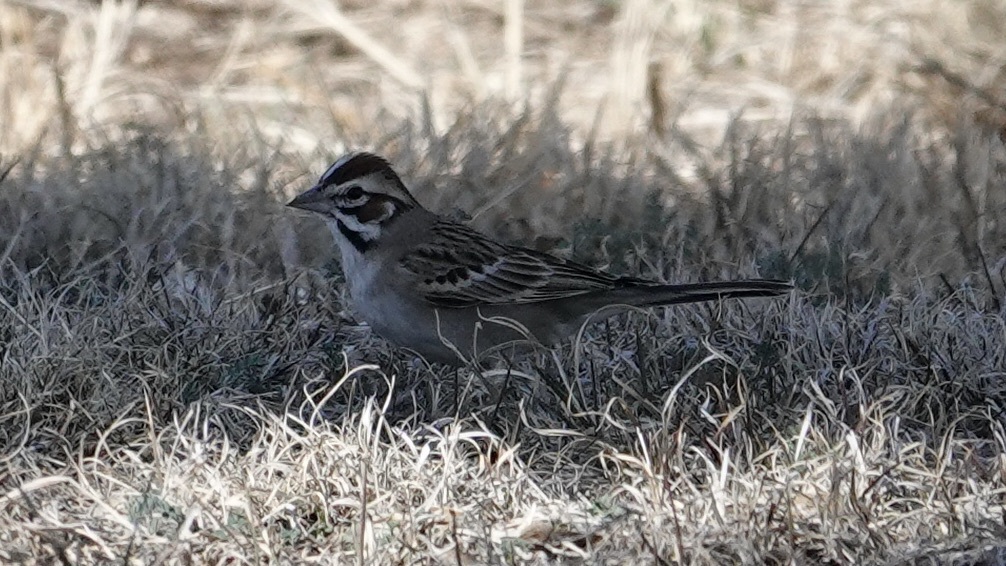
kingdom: Animalia
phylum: Chordata
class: Aves
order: Passeriformes
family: Passerellidae
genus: Chondestes
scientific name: Chondestes grammacus
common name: Lark sparrow
